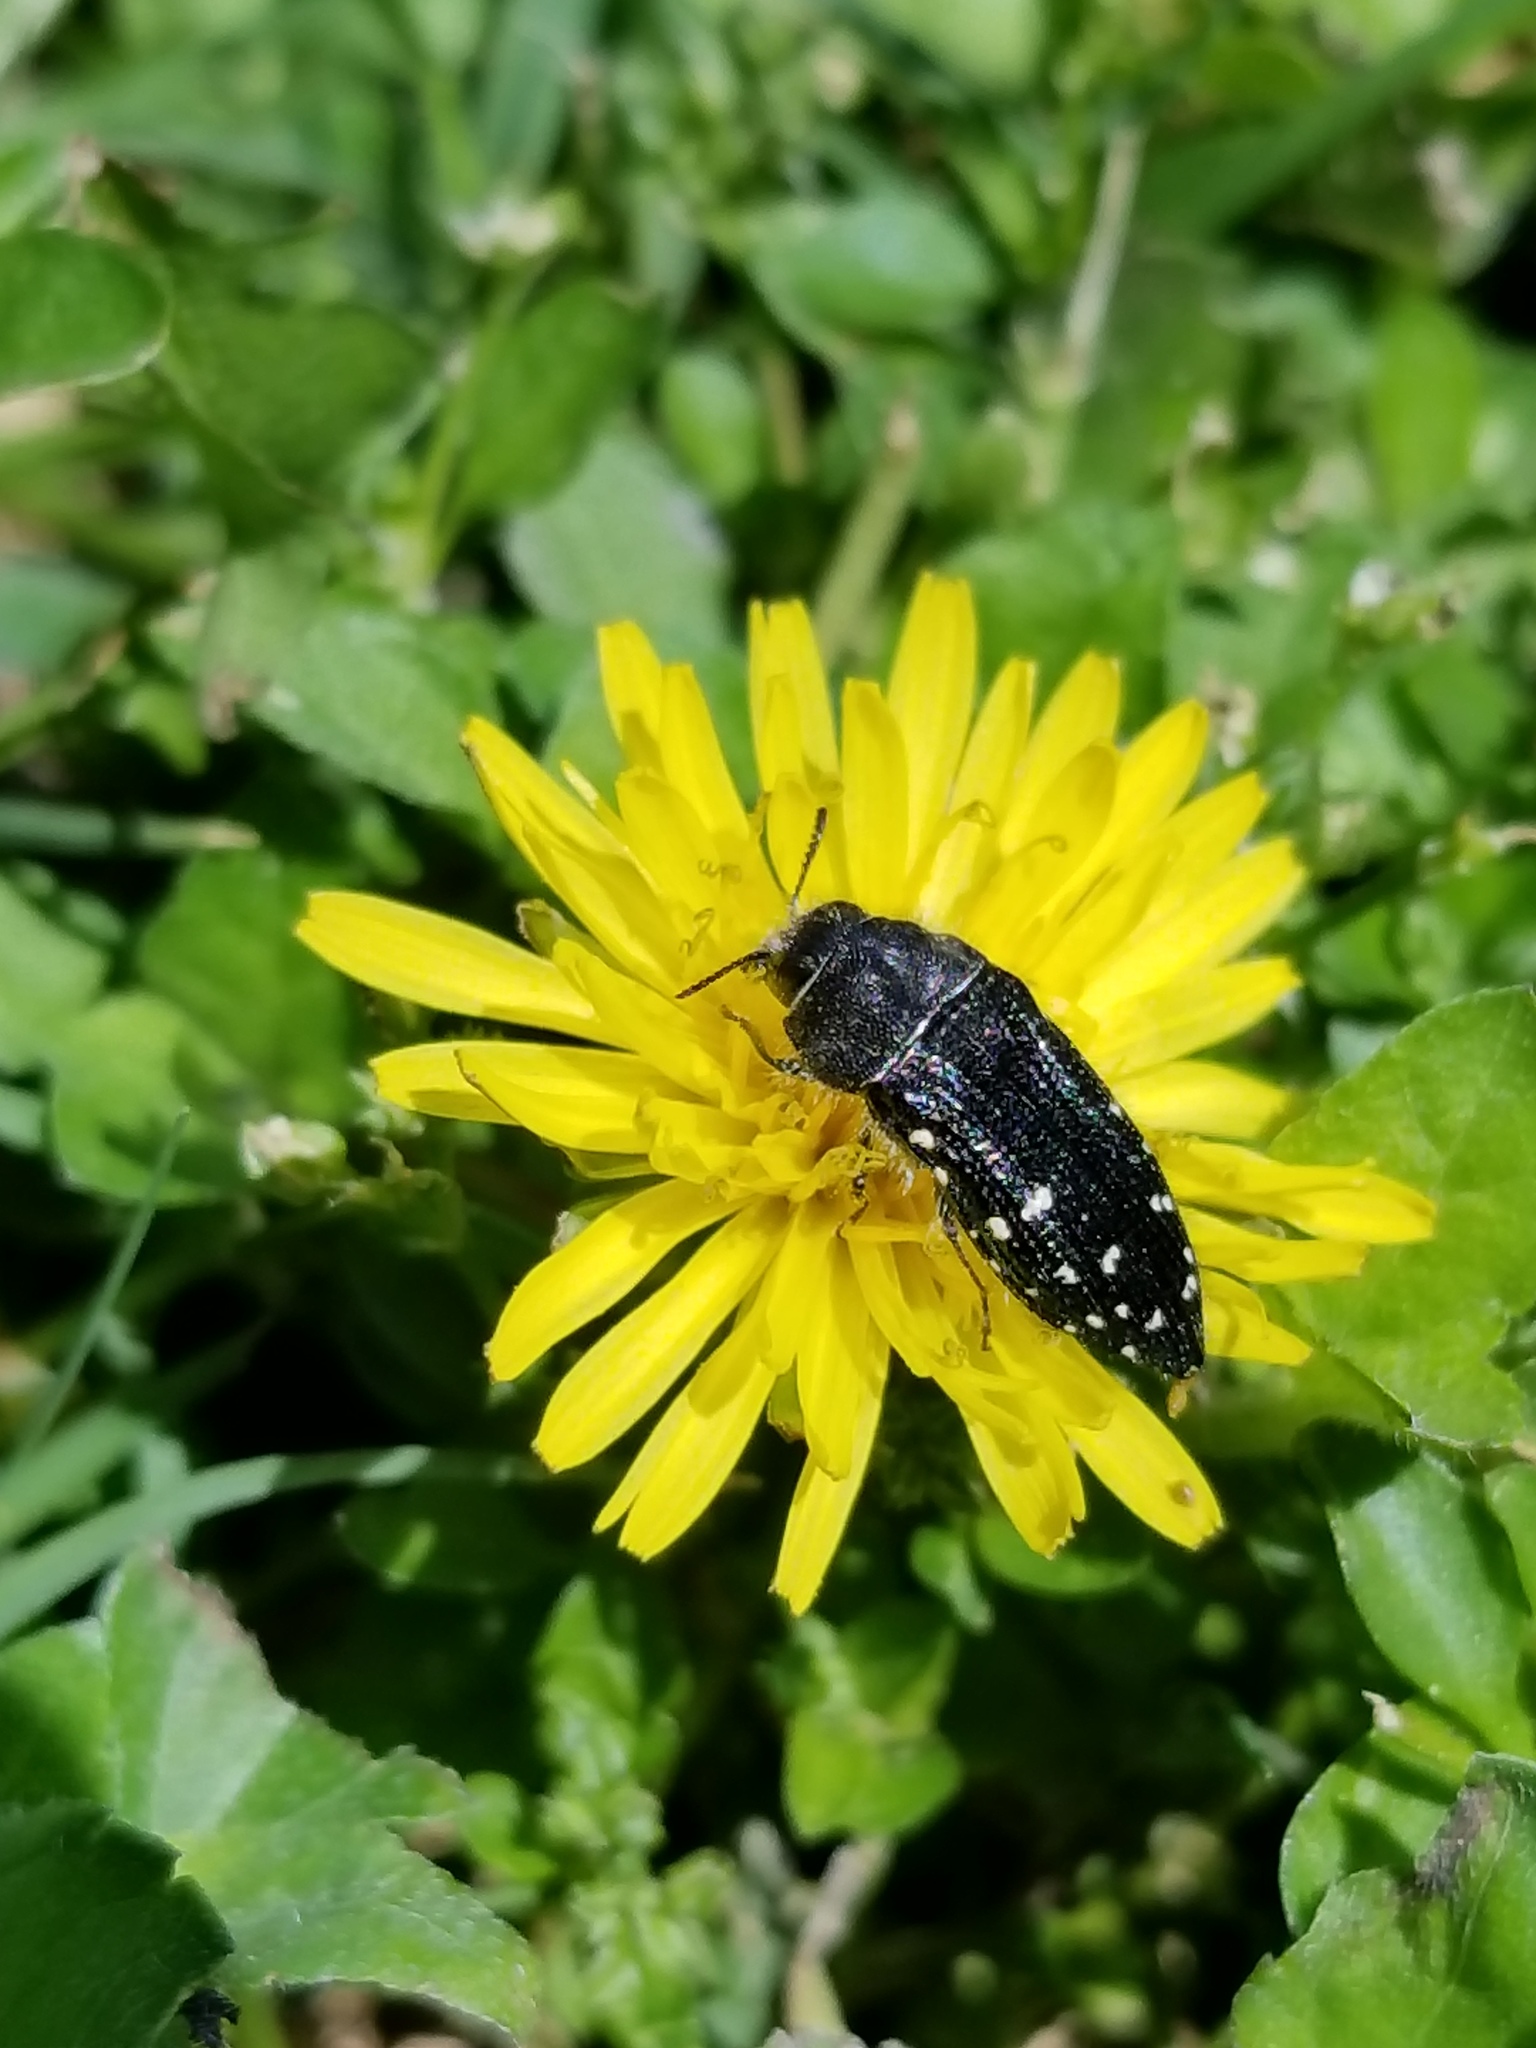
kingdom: Animalia
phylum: Arthropoda
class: Insecta
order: Coleoptera
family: Buprestidae
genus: Acmaeodera
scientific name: Acmaeodera ornatoides
